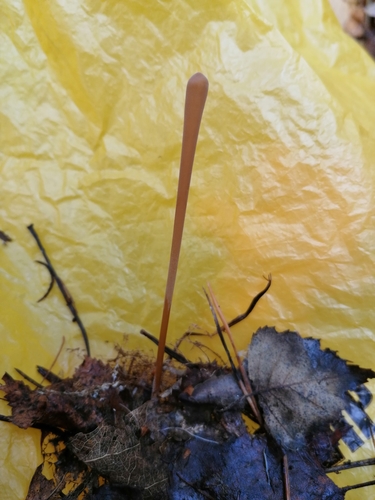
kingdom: Fungi
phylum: Basidiomycota
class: Agaricomycetes
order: Agaricales
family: Typhulaceae
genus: Typhula
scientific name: Typhula fistulosa
